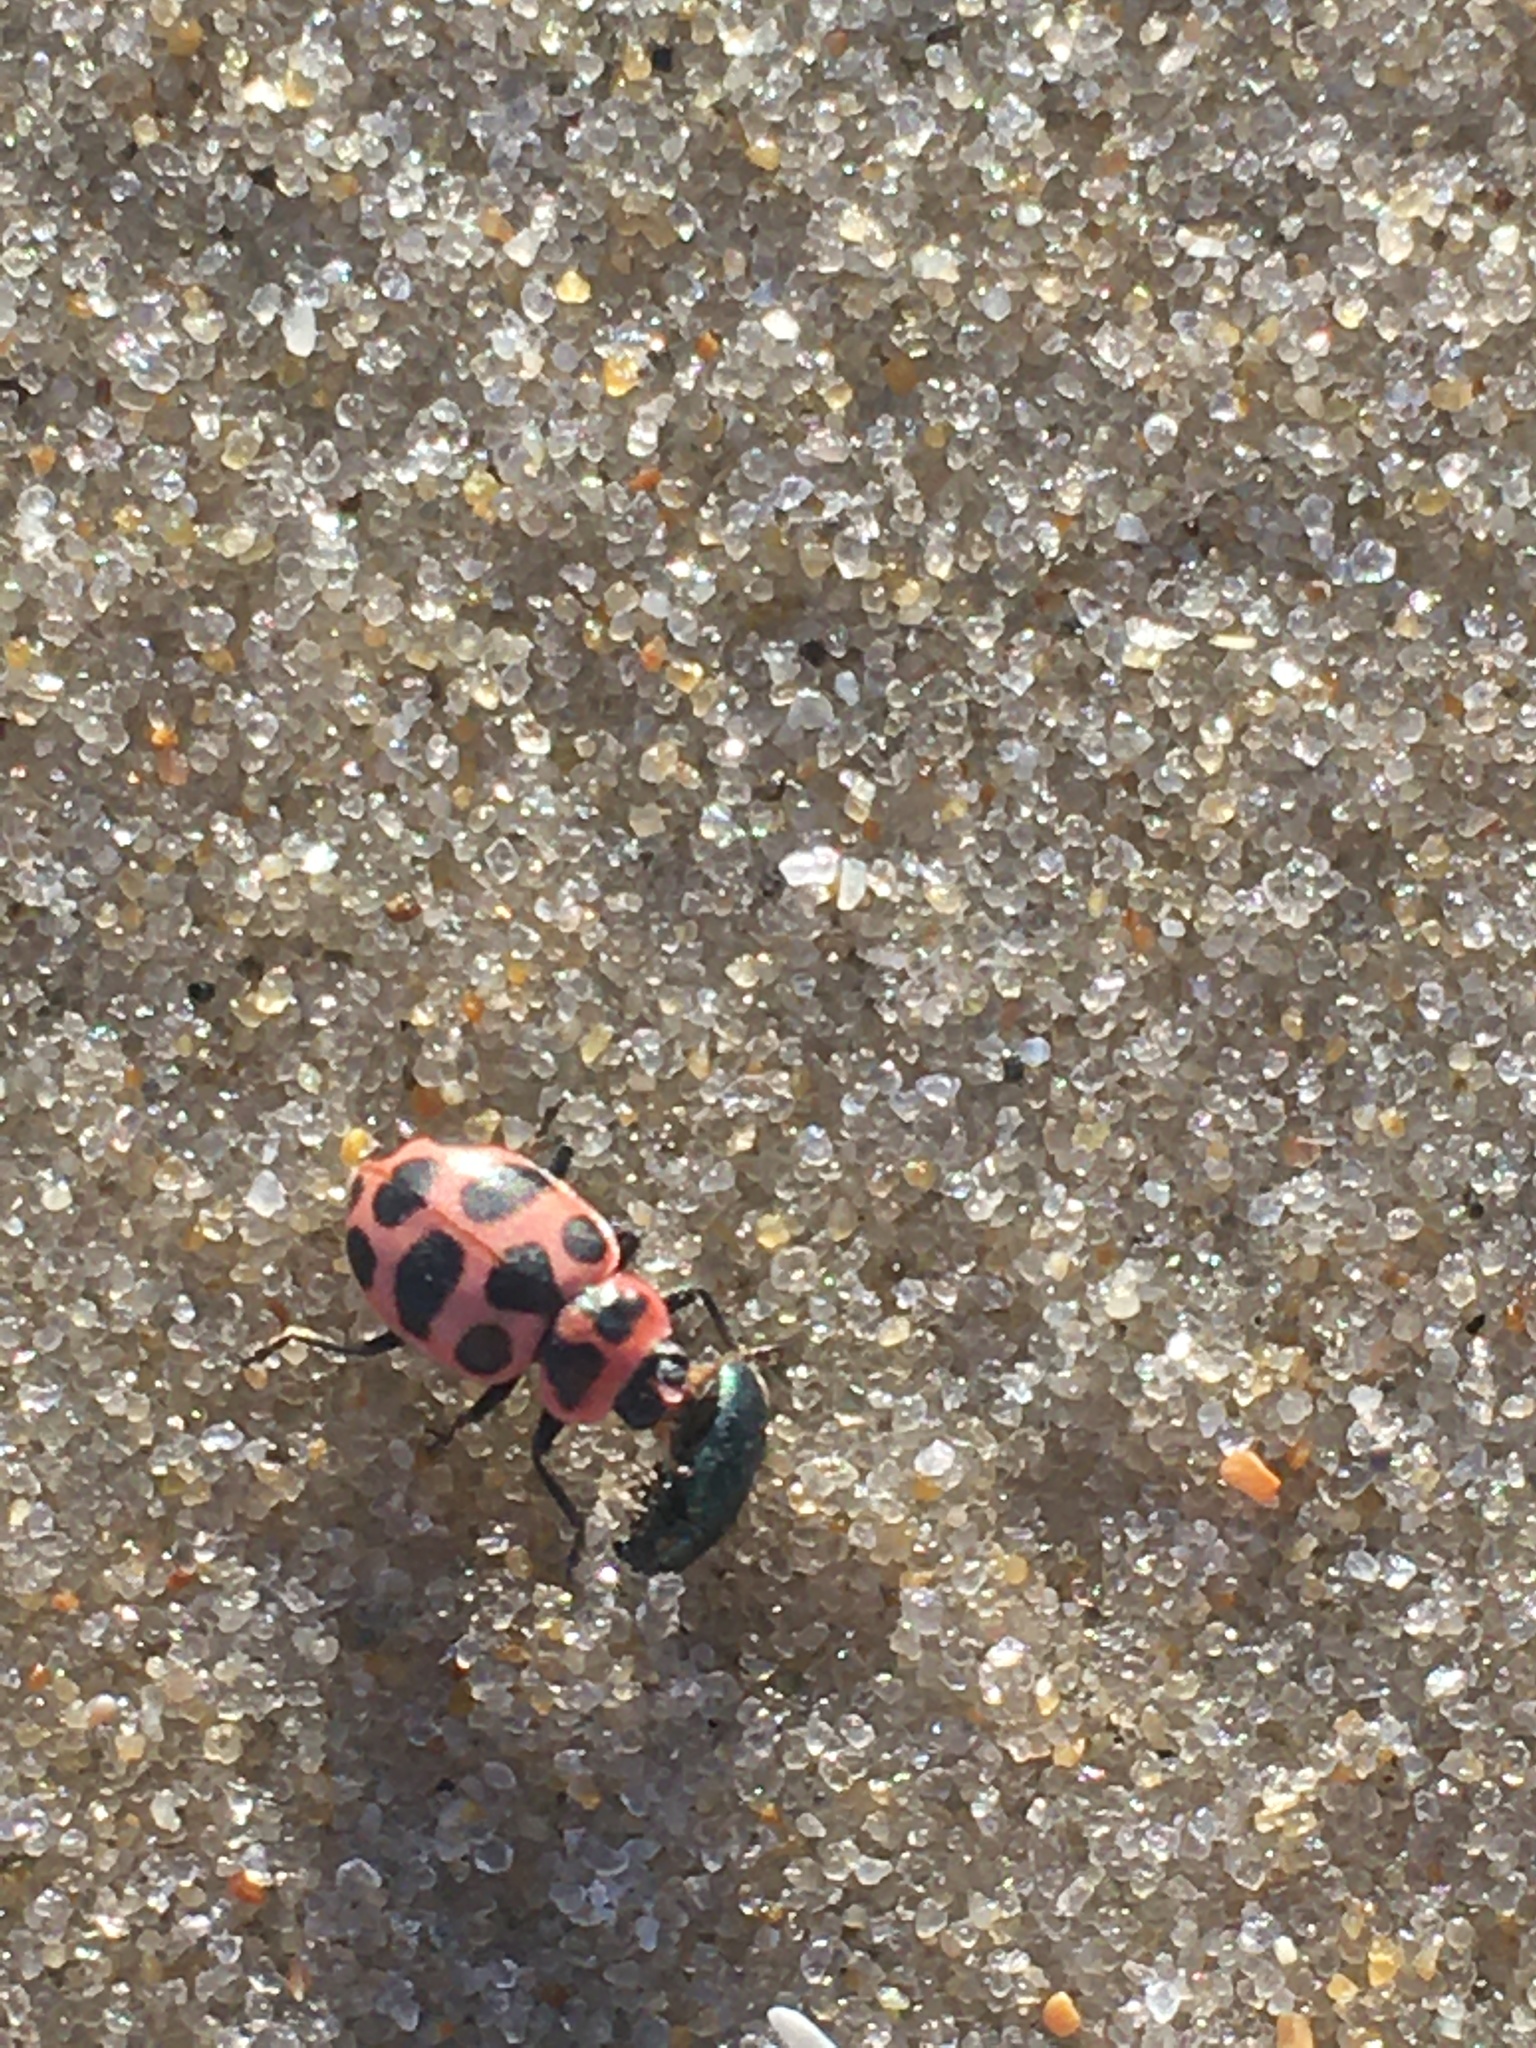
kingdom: Animalia
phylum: Arthropoda
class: Insecta
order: Coleoptera
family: Coccinellidae
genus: Coleomegilla
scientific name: Coleomegilla maculata
